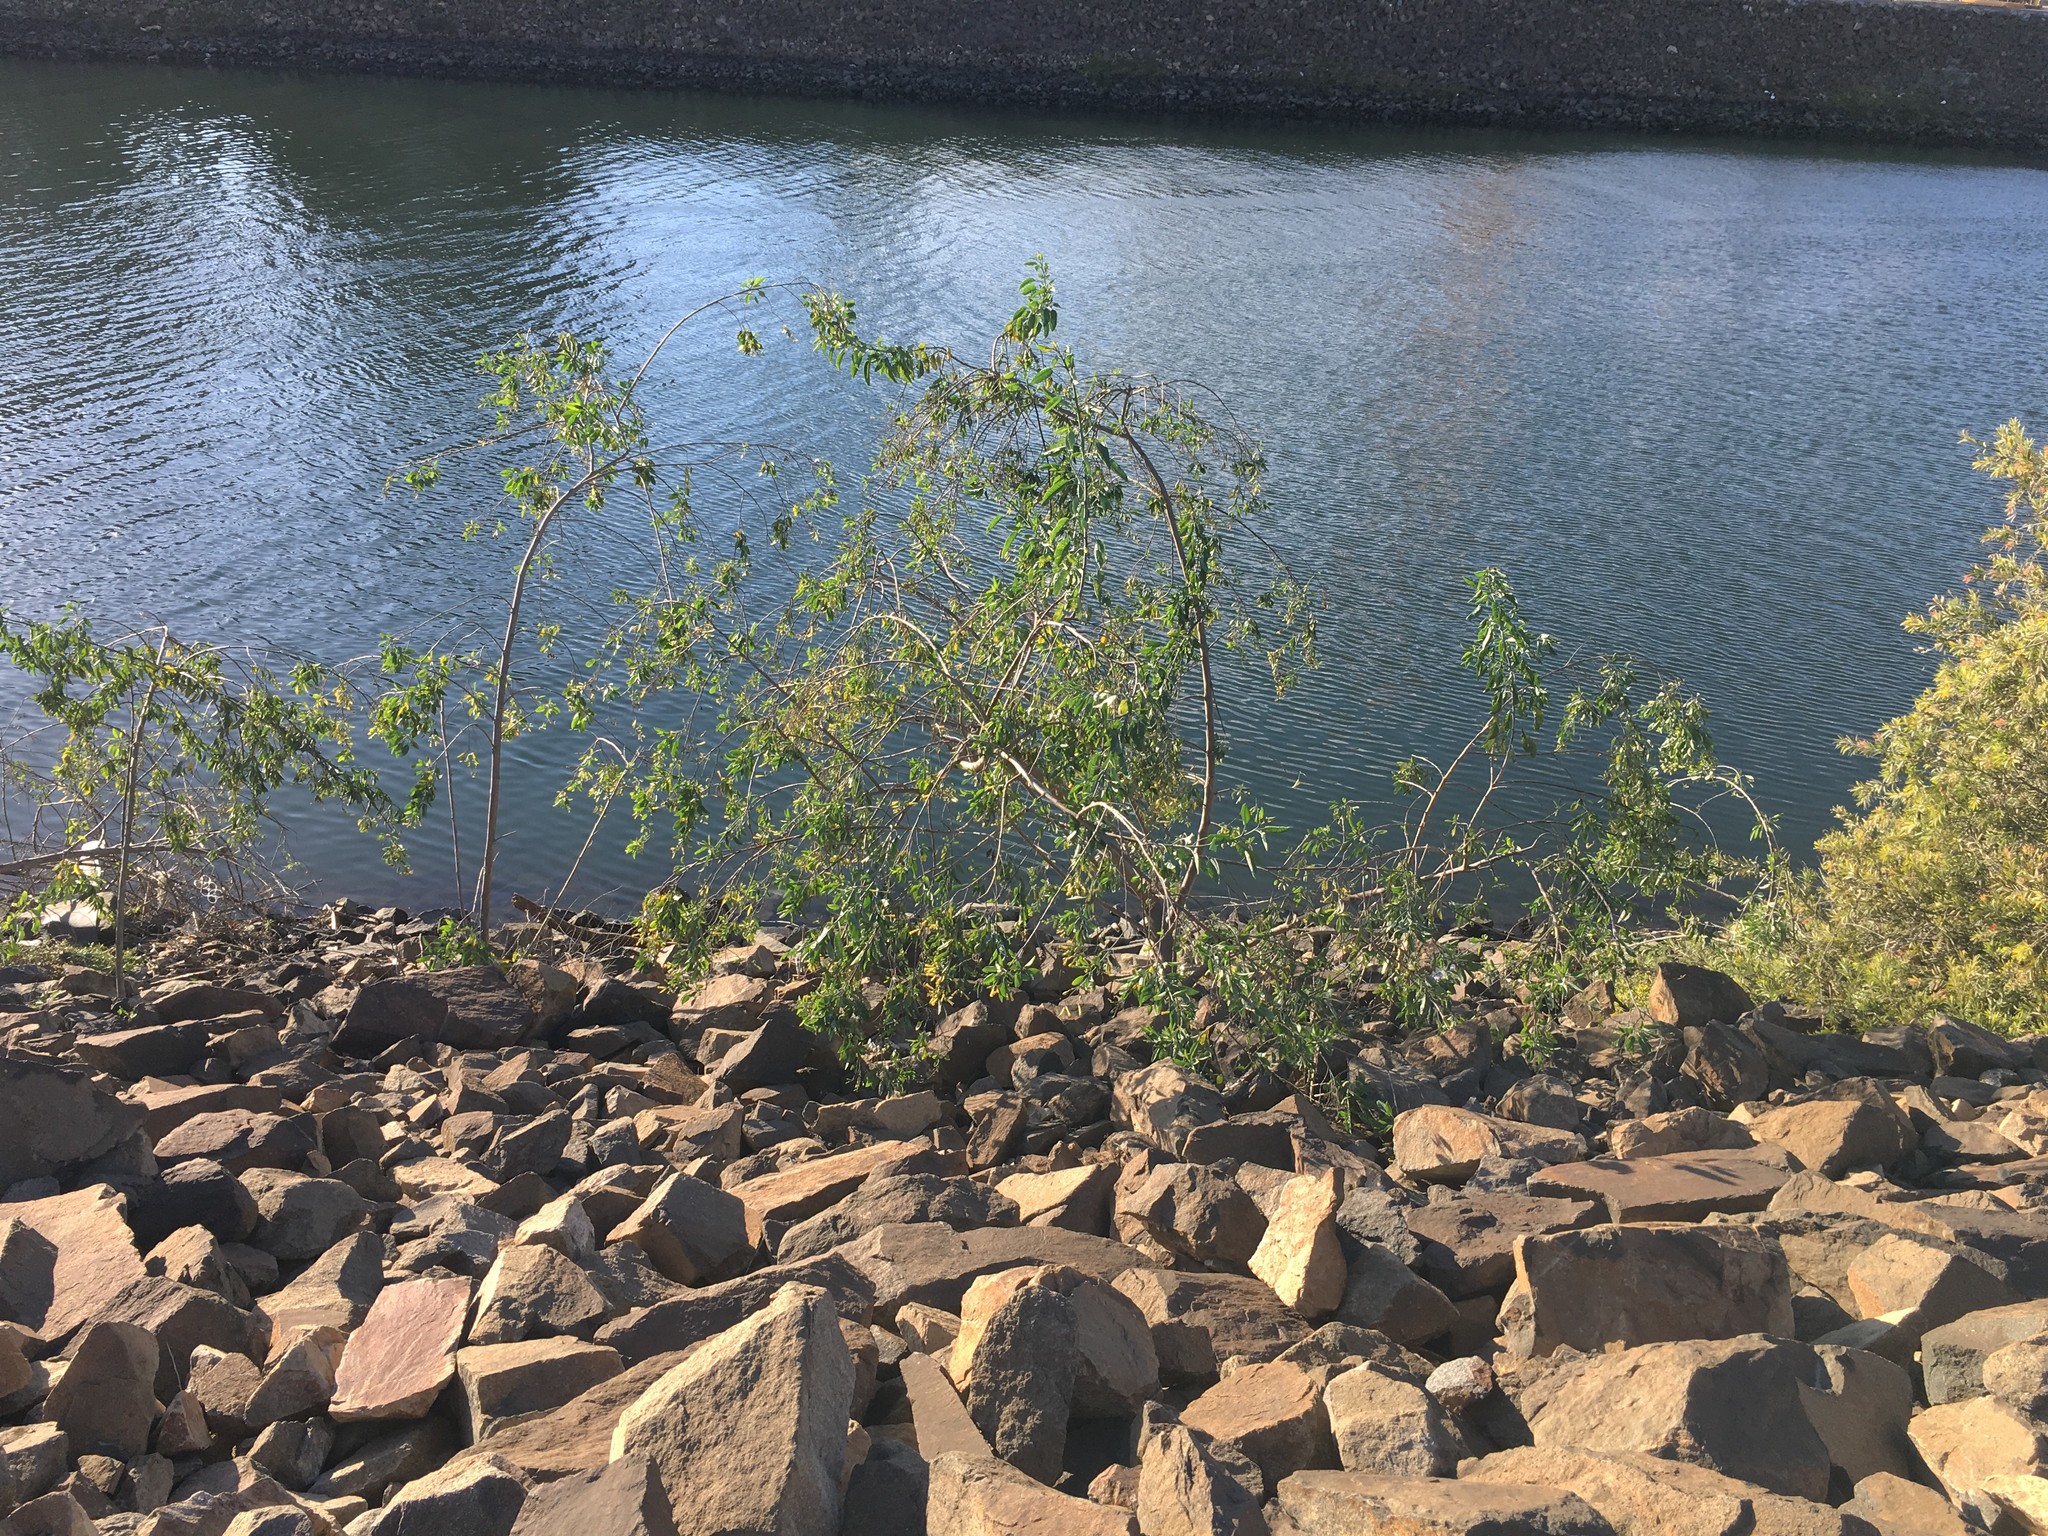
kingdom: Plantae
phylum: Tracheophyta
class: Magnoliopsida
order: Solanales
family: Solanaceae
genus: Nicotiana
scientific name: Nicotiana glauca
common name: Tree tobacco
